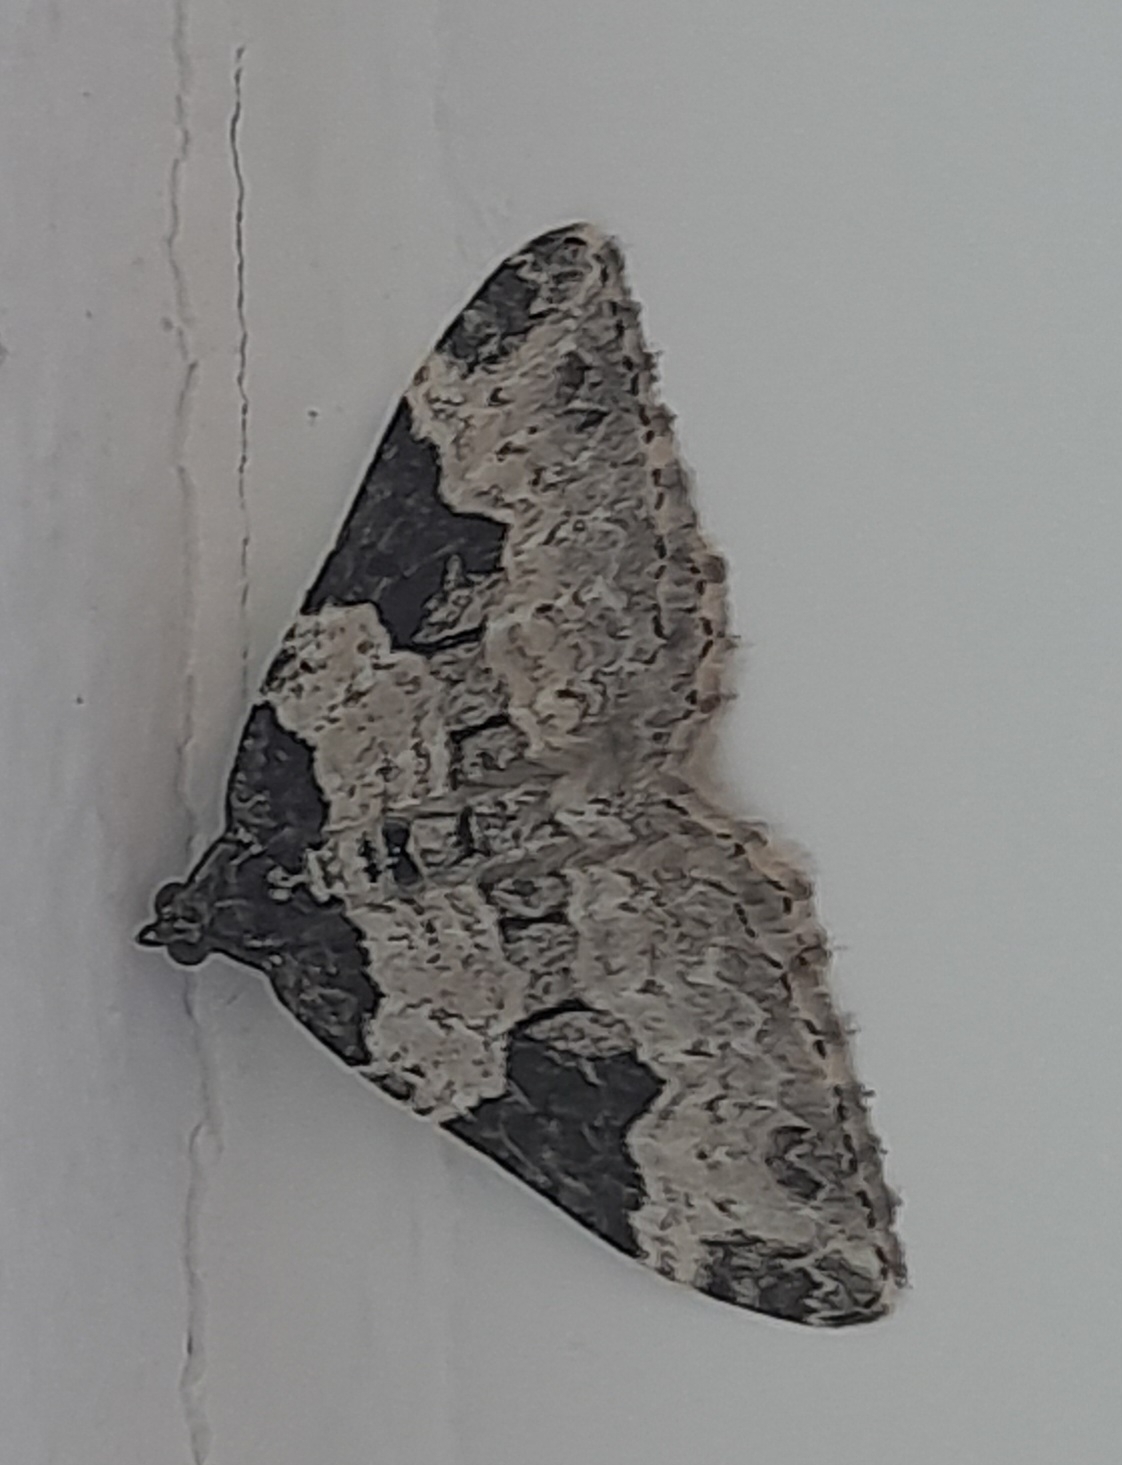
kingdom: Animalia
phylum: Arthropoda
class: Insecta
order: Lepidoptera
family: Geometridae
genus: Xanthorhoe
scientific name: Xanthorhoe fluctuata
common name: Garden carpet
